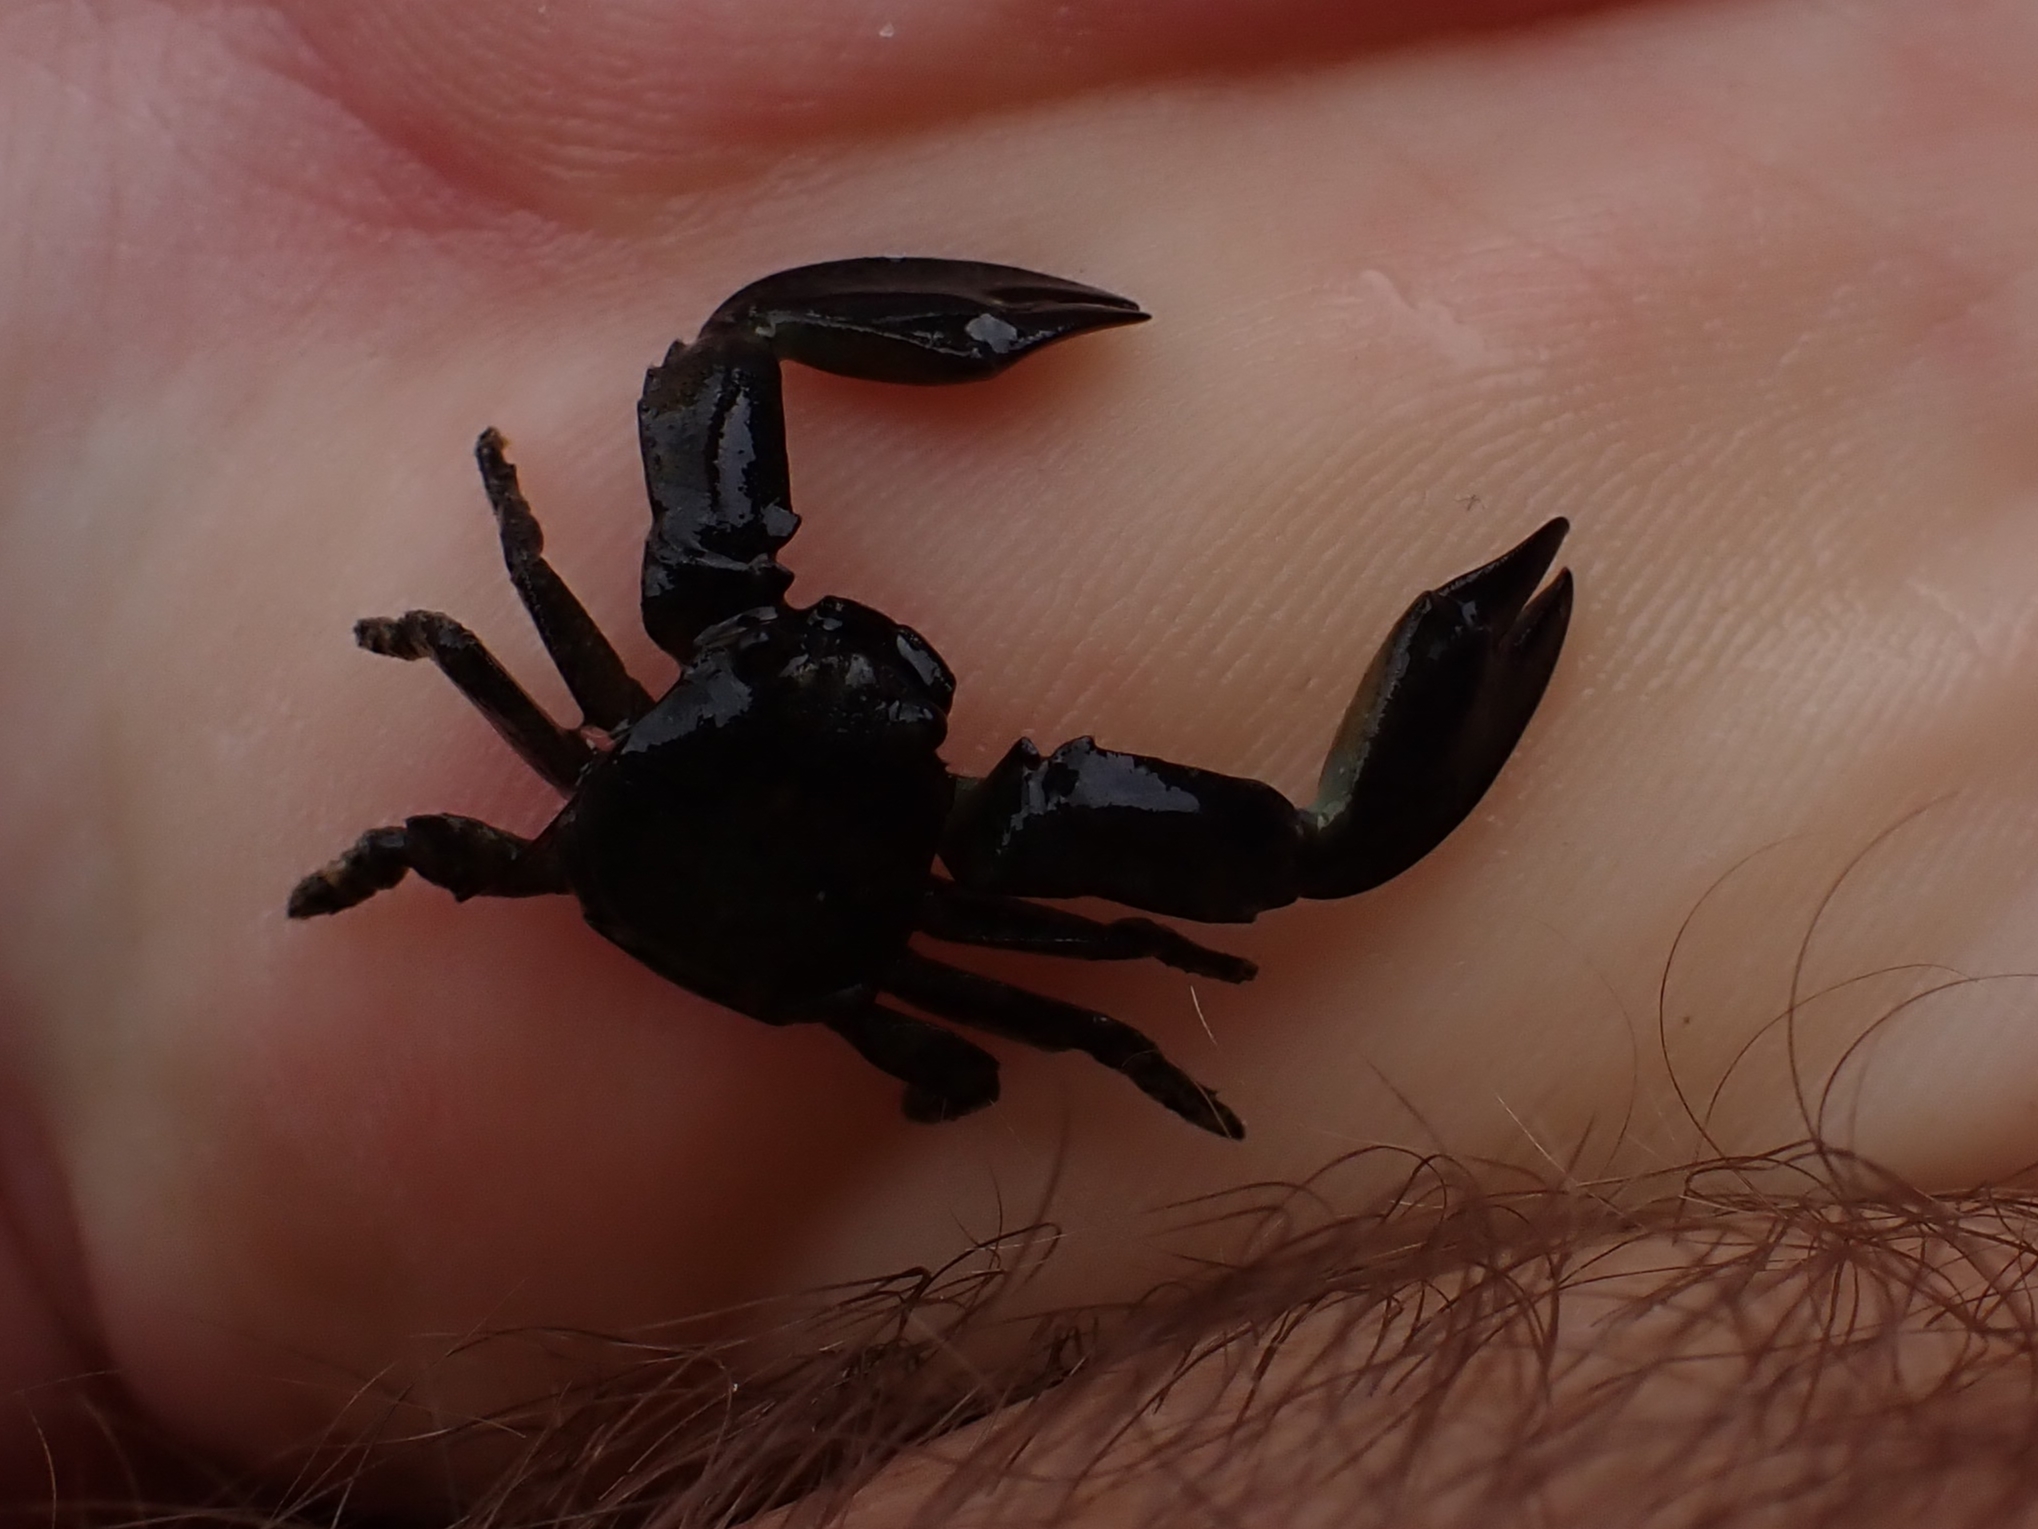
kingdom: Animalia
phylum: Arthropoda
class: Malacostraca
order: Decapoda
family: Porcellanidae
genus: Petrolisthes
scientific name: Petrolisthes elongatus
